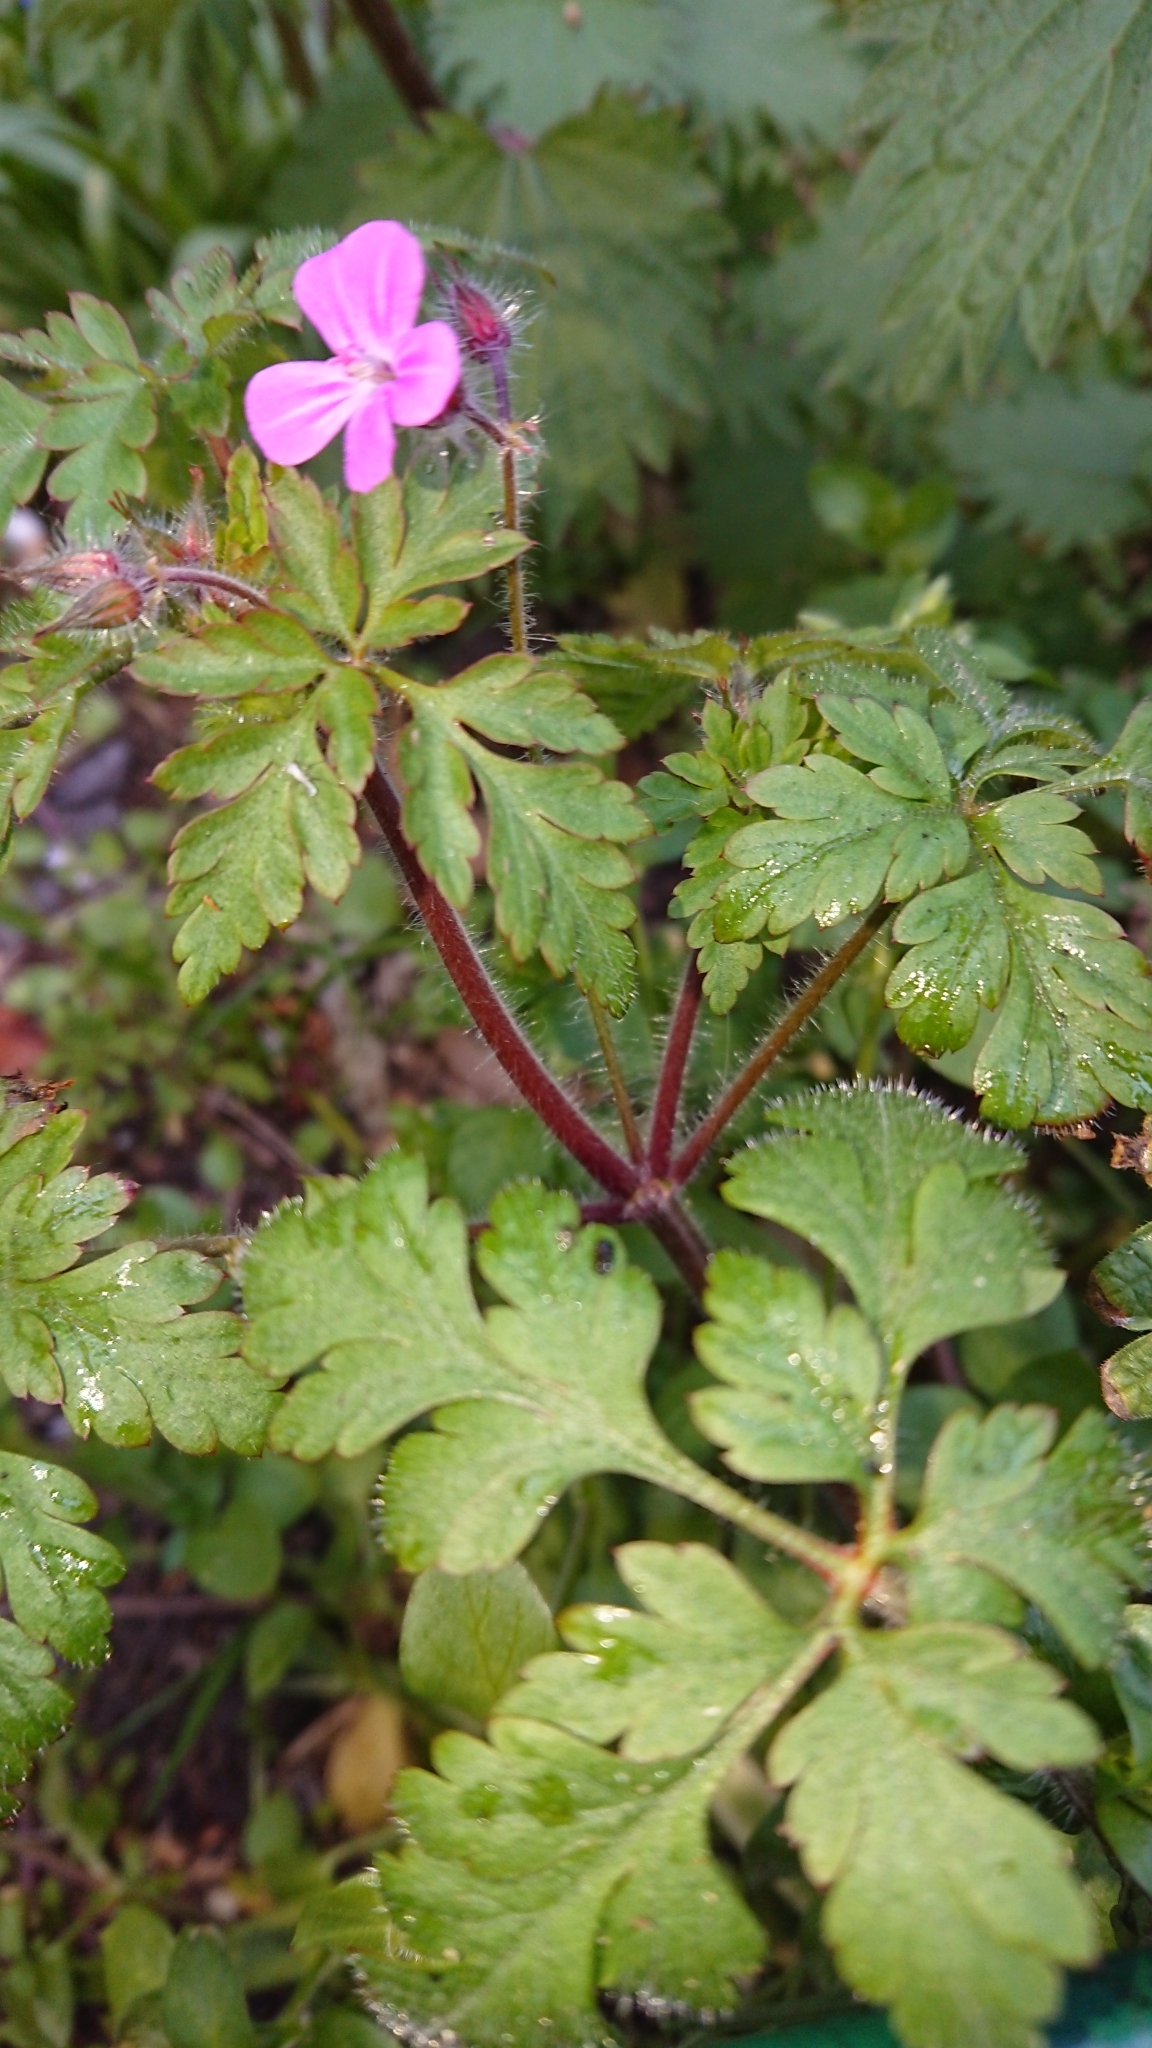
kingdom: Plantae
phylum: Tracheophyta
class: Magnoliopsida
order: Geraniales
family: Geraniaceae
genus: Geranium
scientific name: Geranium robertianum
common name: Herb-robert
